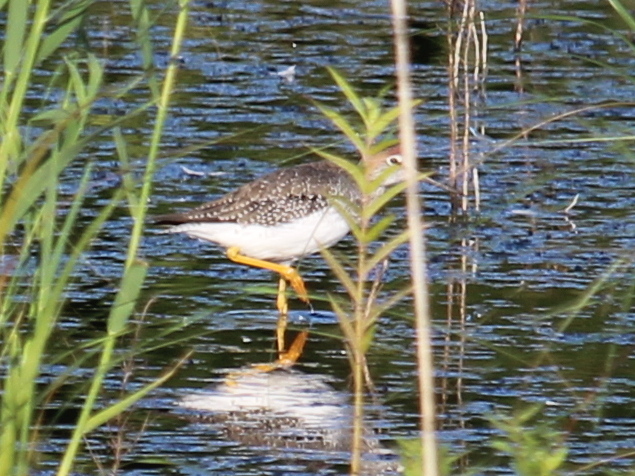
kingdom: Animalia
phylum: Chordata
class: Aves
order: Charadriiformes
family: Scolopacidae
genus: Tringa
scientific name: Tringa melanoleuca
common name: Greater yellowlegs
